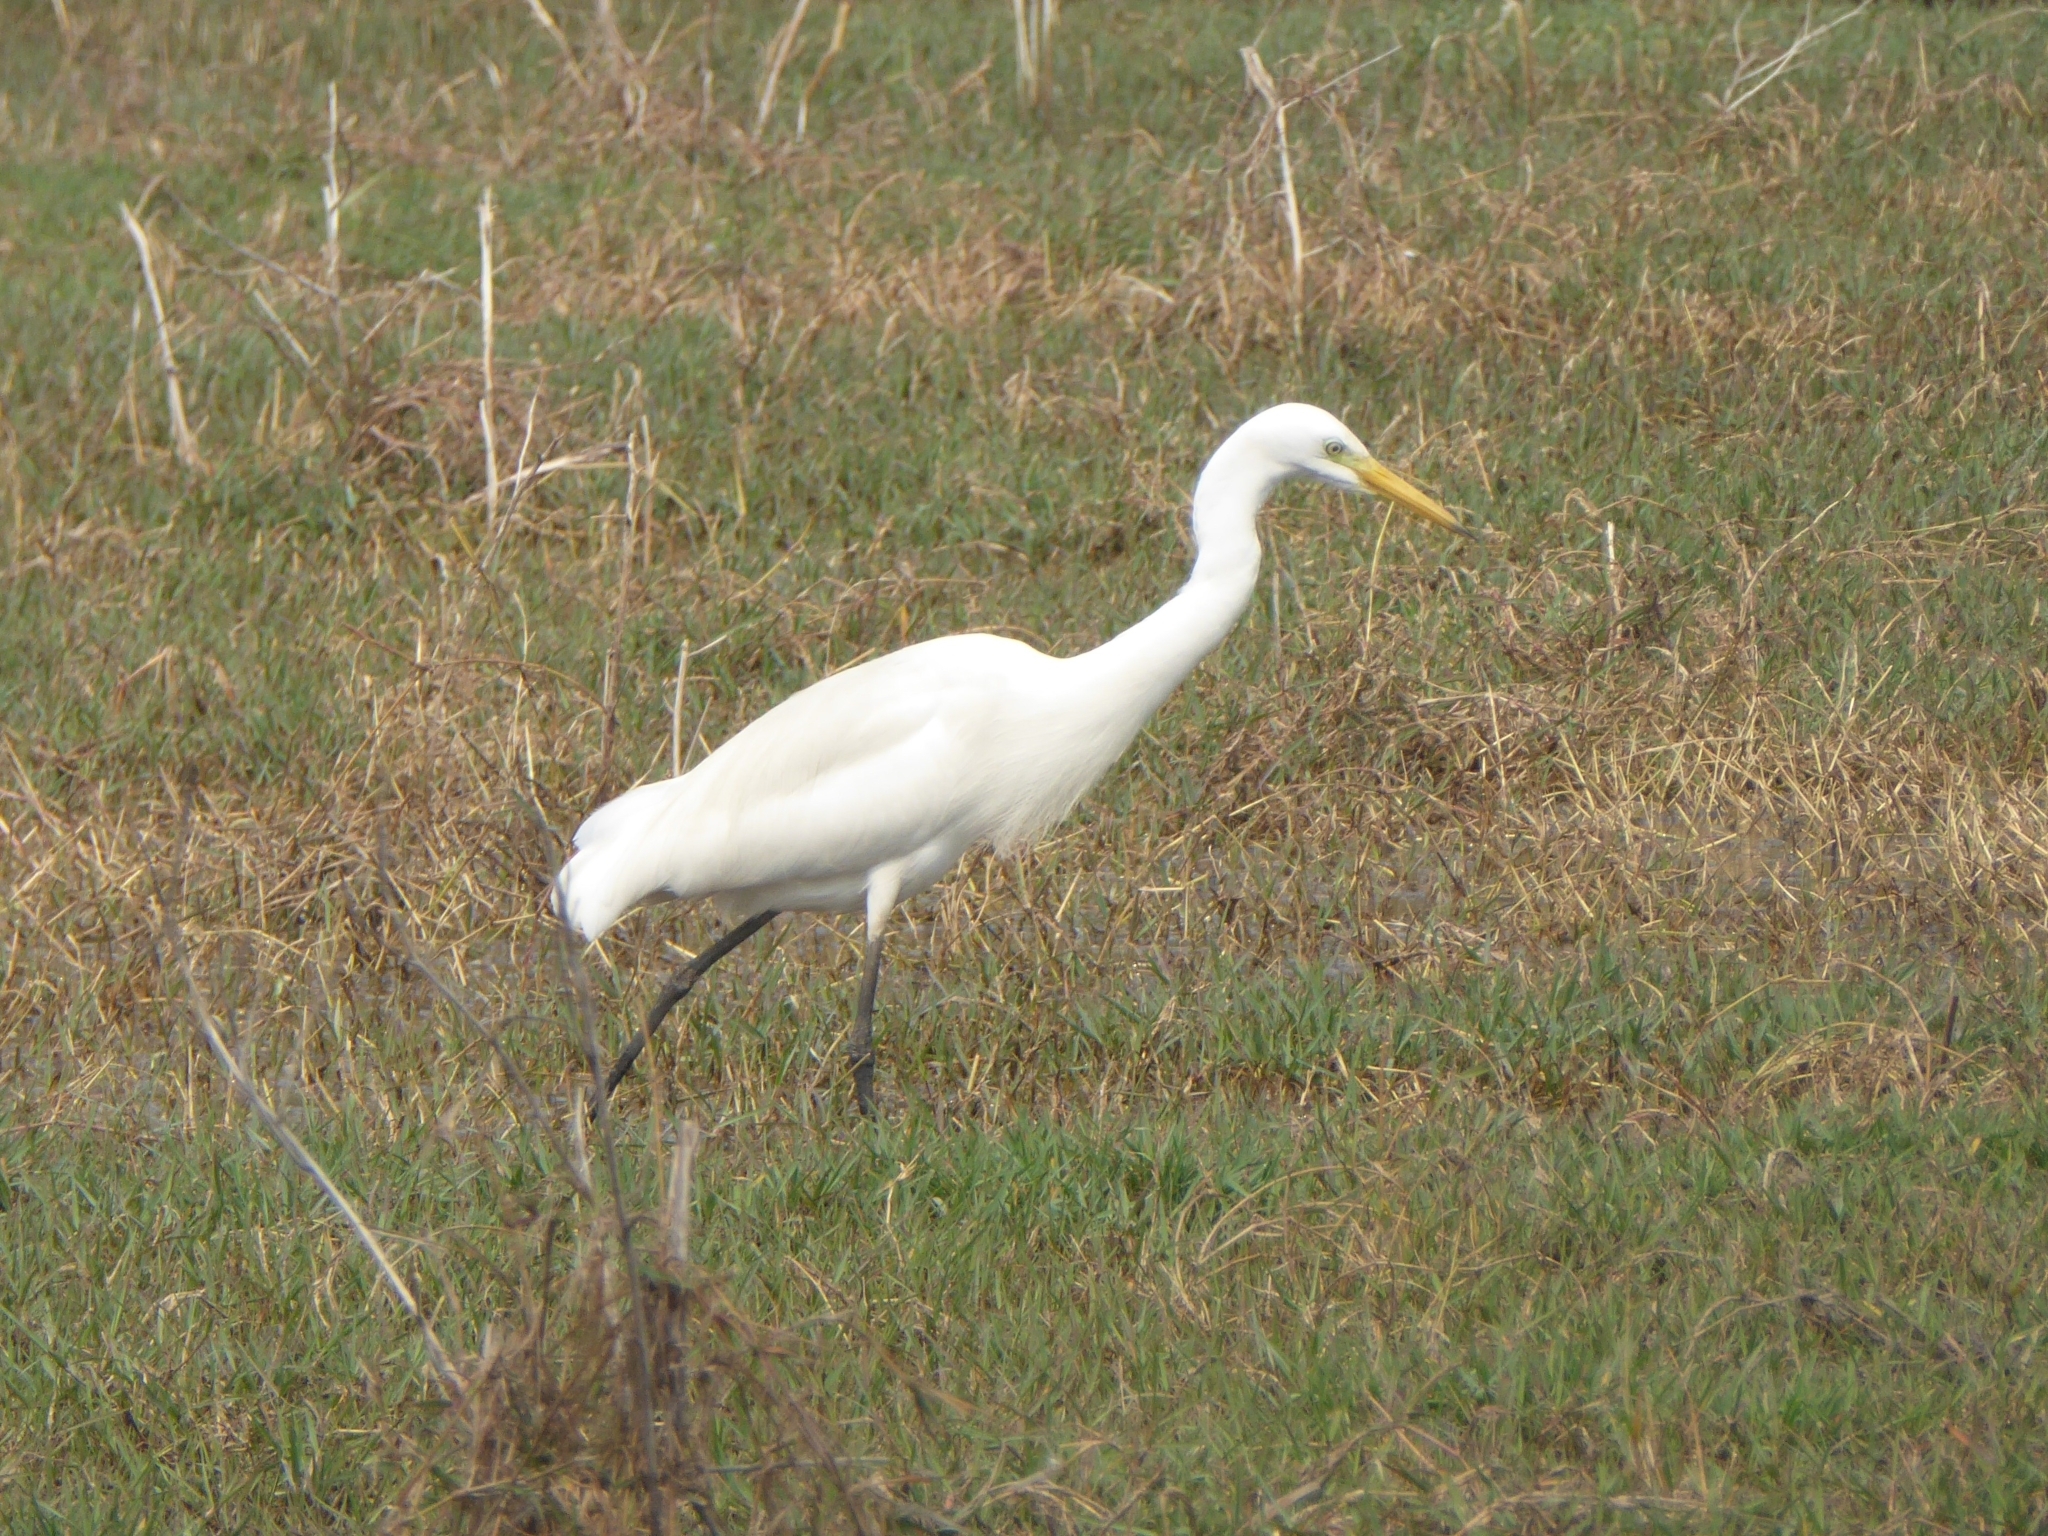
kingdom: Animalia
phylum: Chordata
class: Aves
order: Pelecaniformes
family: Ardeidae
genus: Egretta
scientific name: Egretta intermedia
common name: Intermediate egret
